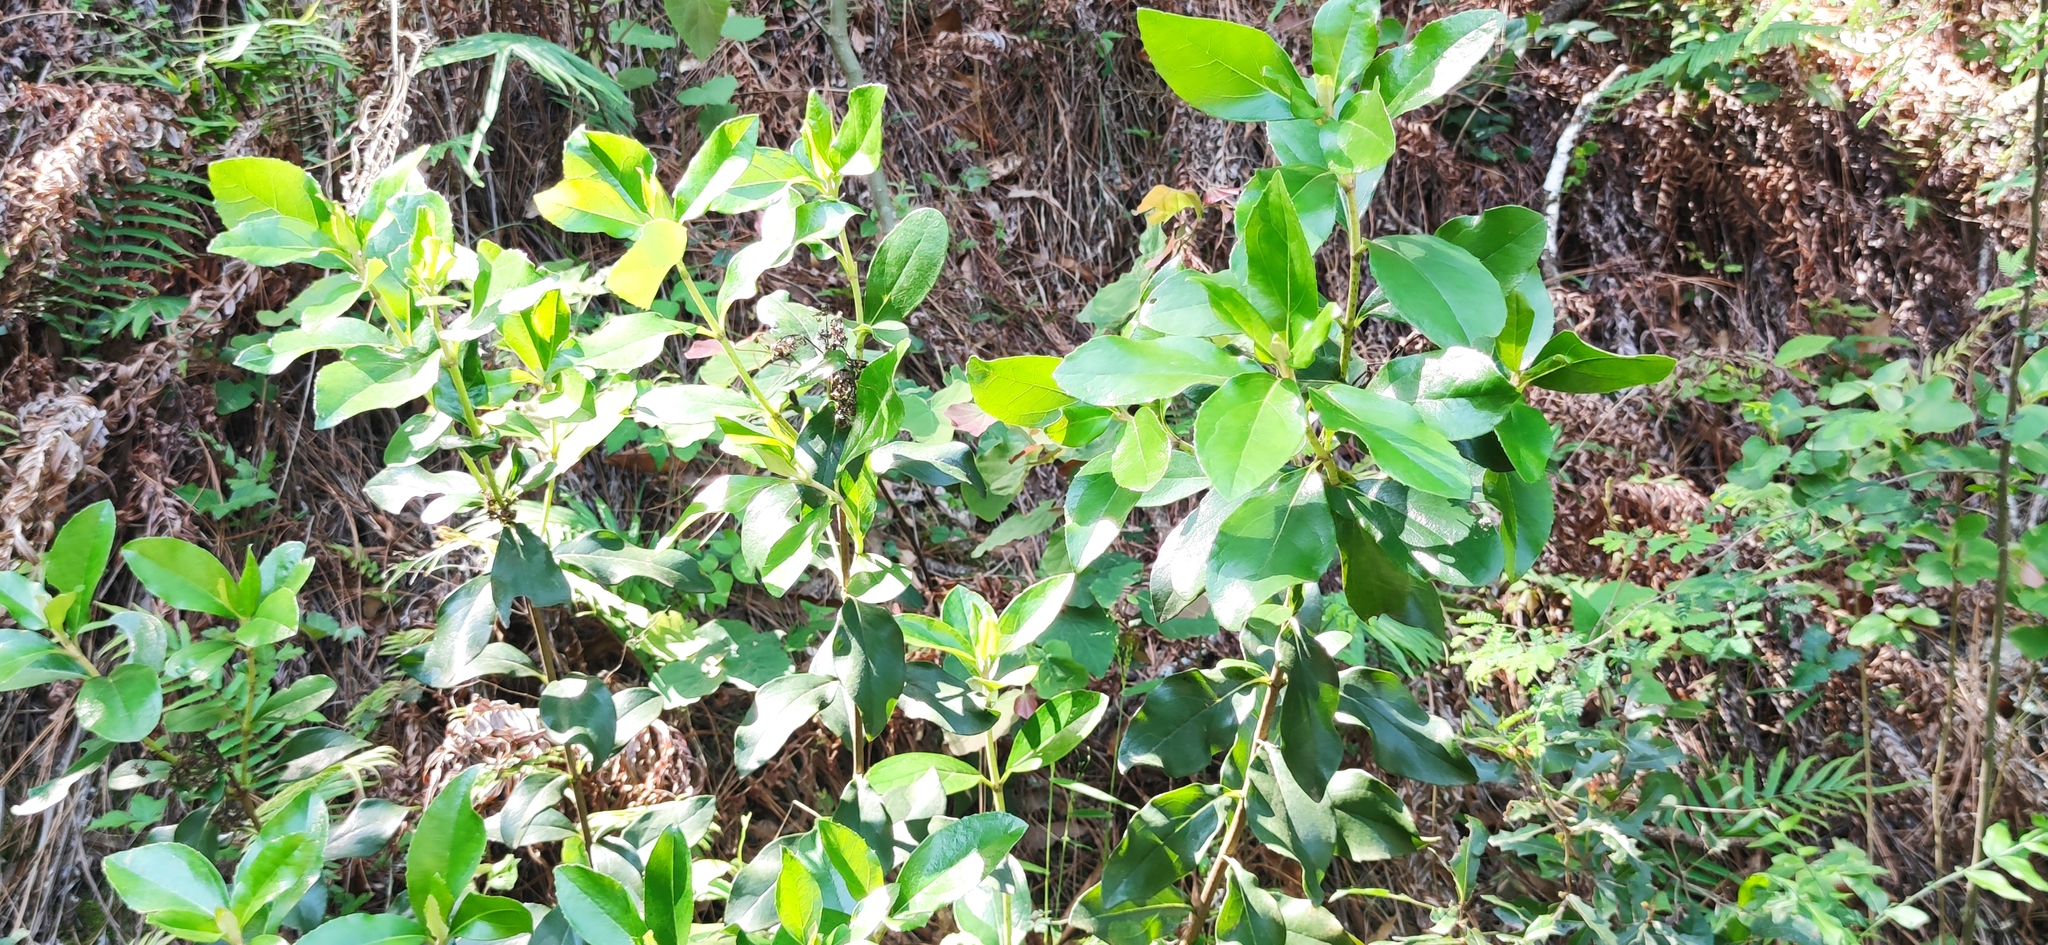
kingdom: Plantae
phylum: Tracheophyta
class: Magnoliopsida
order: Asterales
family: Asteraceae
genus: Ageratina
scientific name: Ageratina viburnoides
